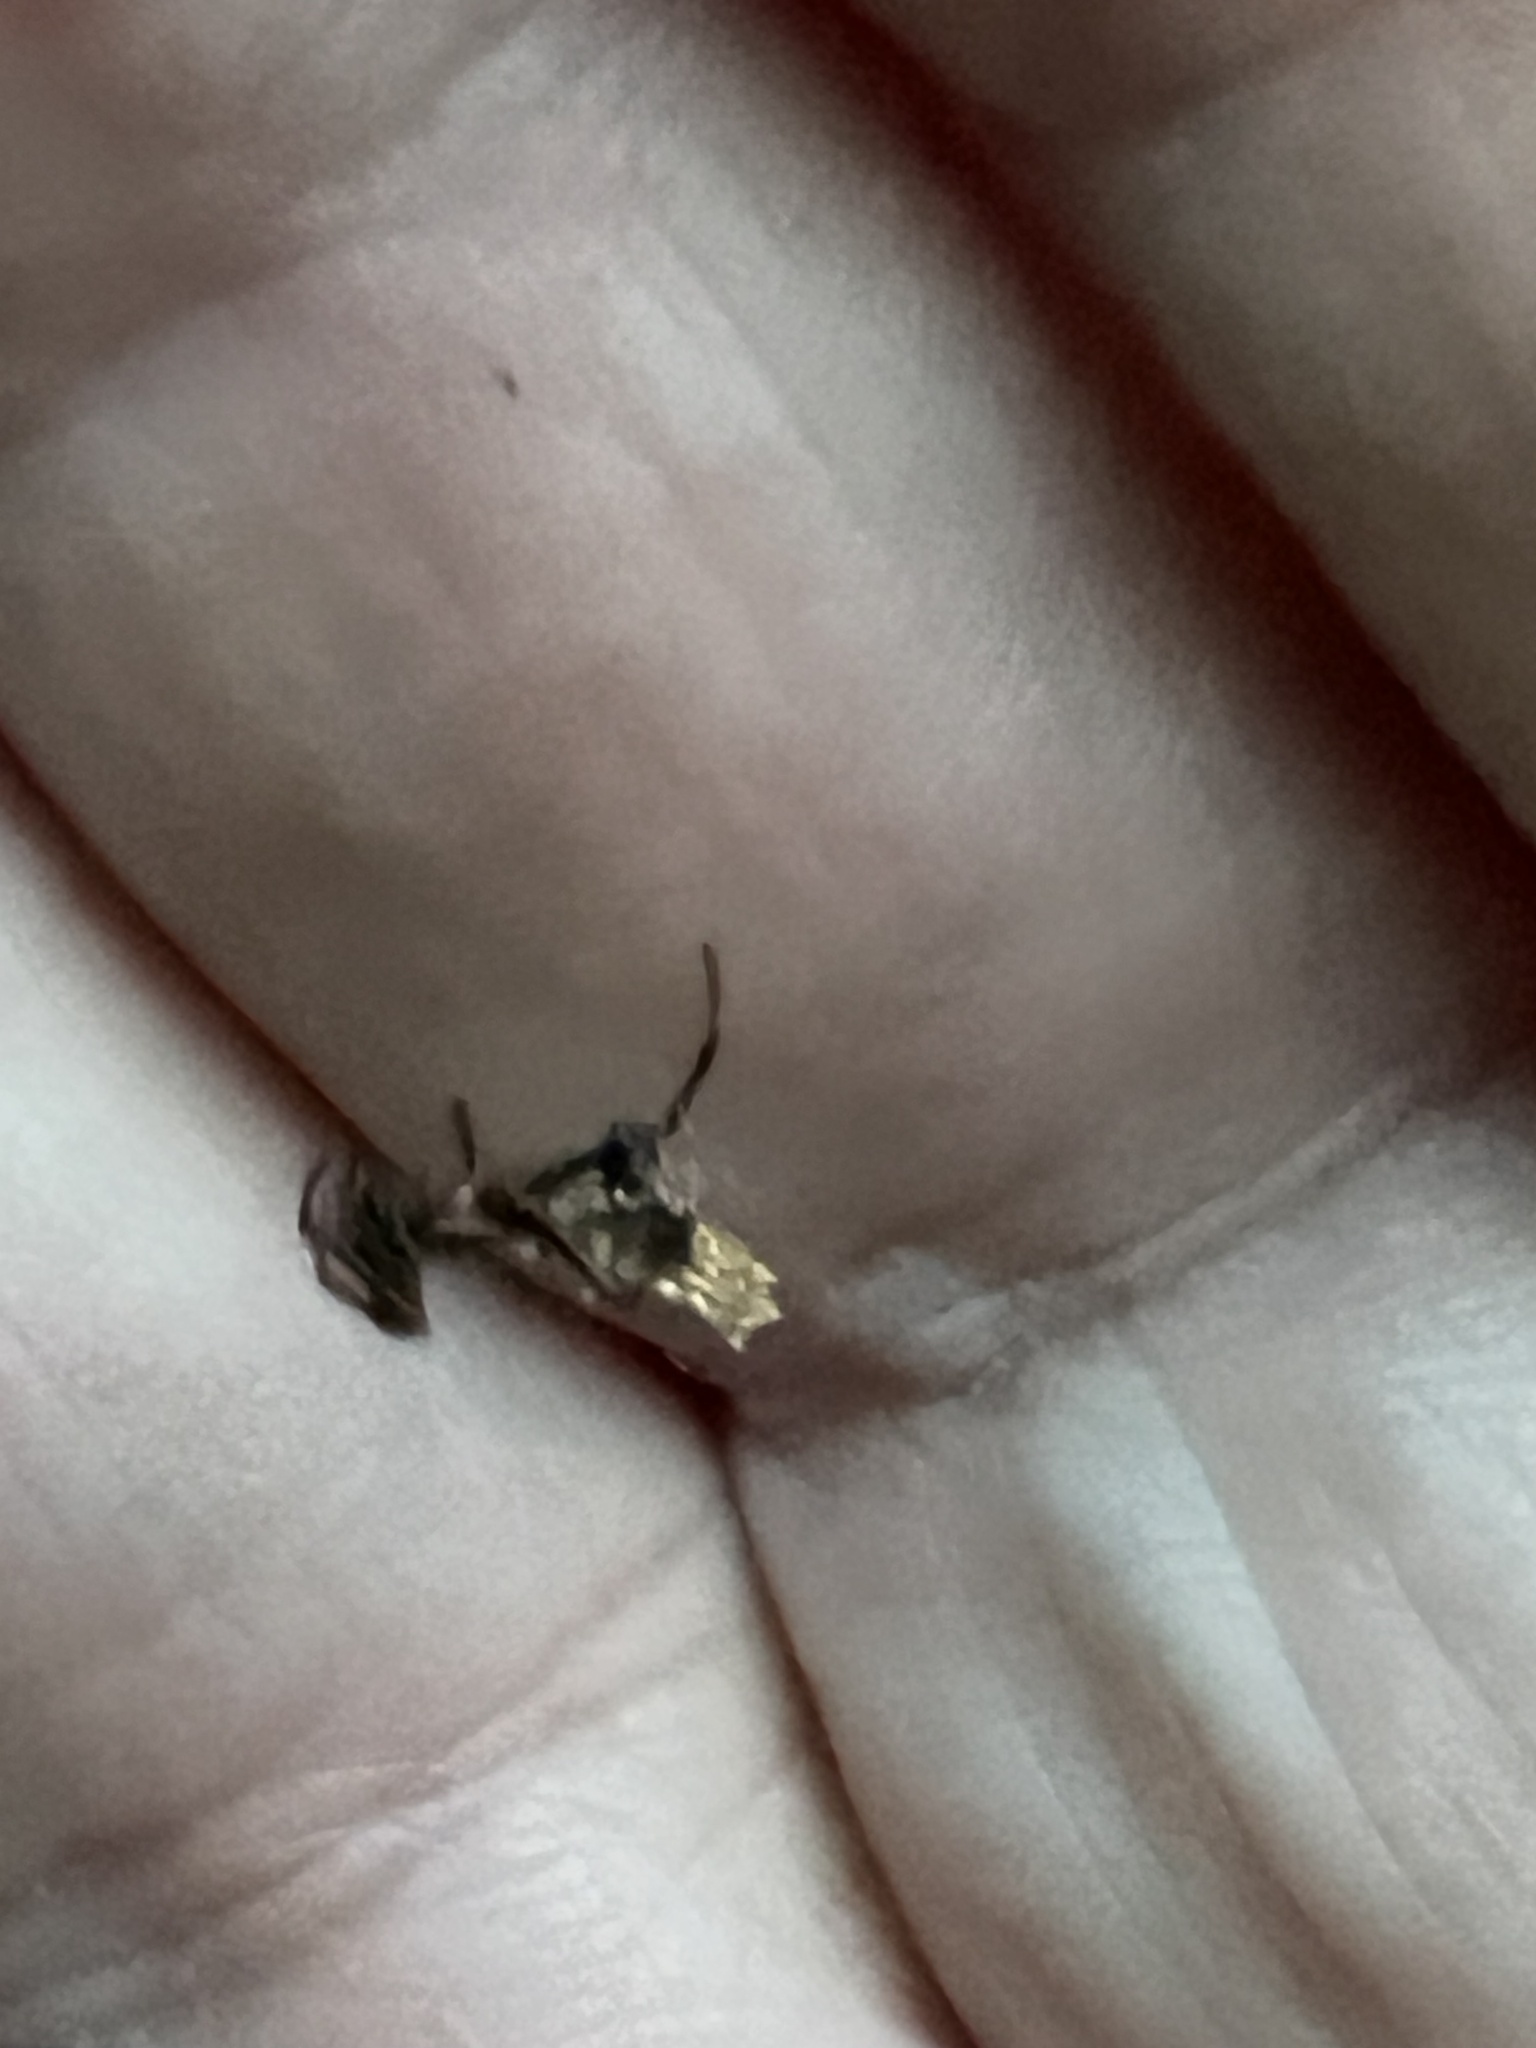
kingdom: Animalia
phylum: Arthropoda
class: Arachnida
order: Araneae
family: Araneidae
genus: Micrathena
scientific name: Micrathena gracilis
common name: Orb weavers
